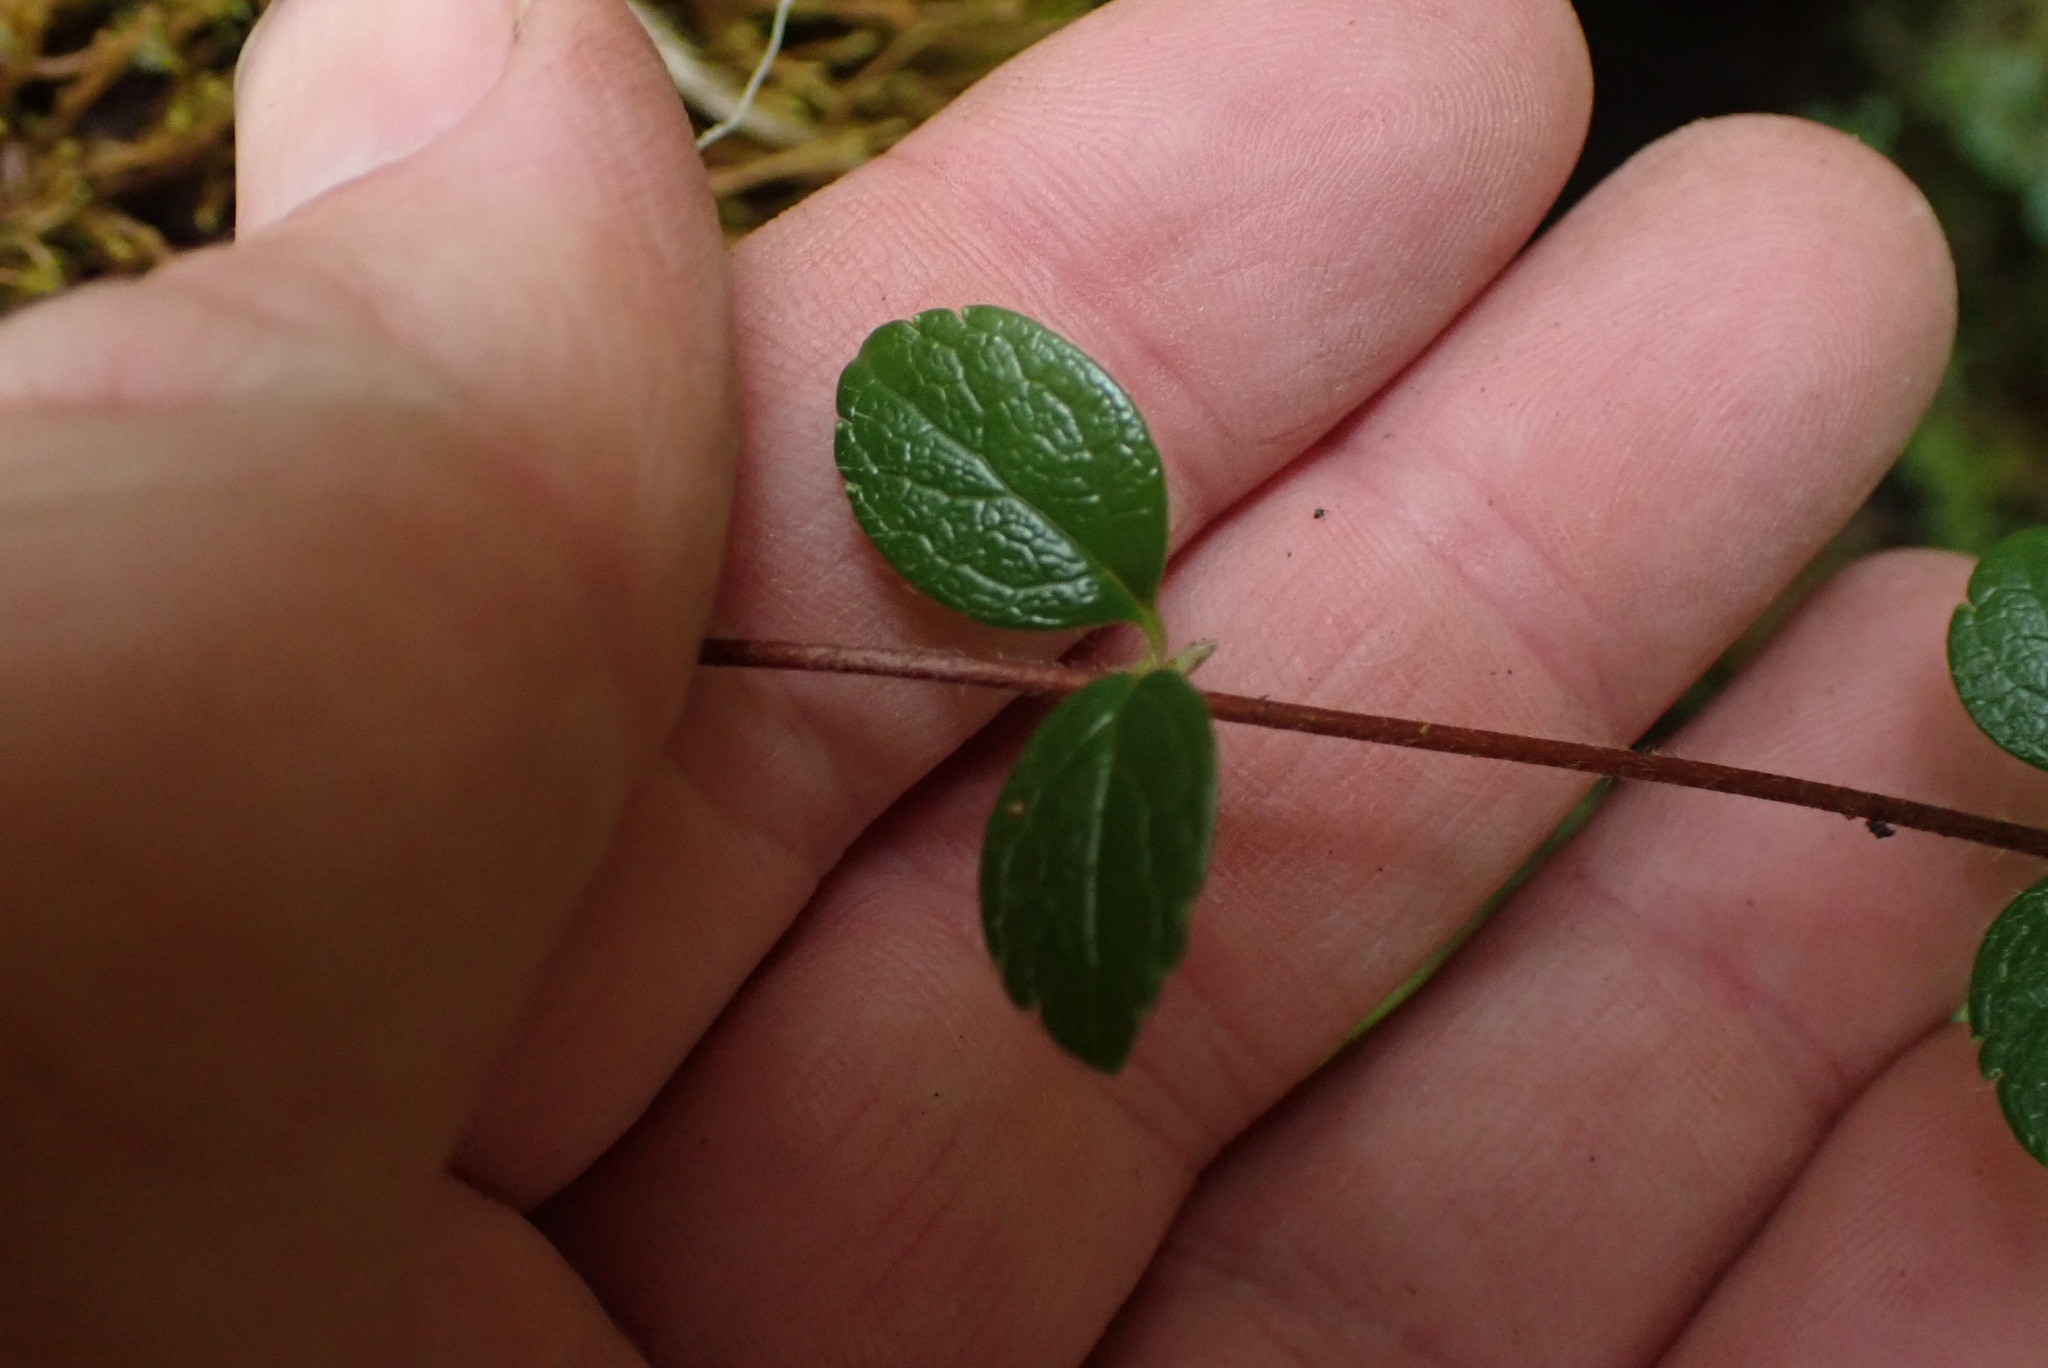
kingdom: Plantae
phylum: Tracheophyta
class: Magnoliopsida
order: Dipsacales
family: Caprifoliaceae
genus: Linnaea
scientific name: Linnaea borealis
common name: Twinflower
